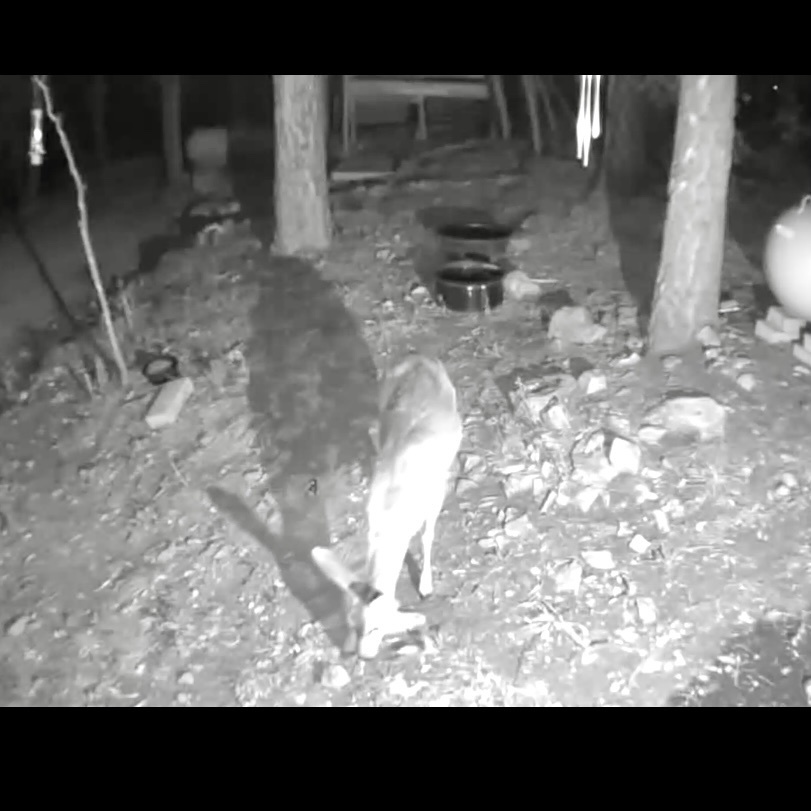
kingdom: Animalia
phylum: Chordata
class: Mammalia
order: Artiodactyla
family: Cervidae
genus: Odocoileus
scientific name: Odocoileus hemionus
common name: Mule deer
